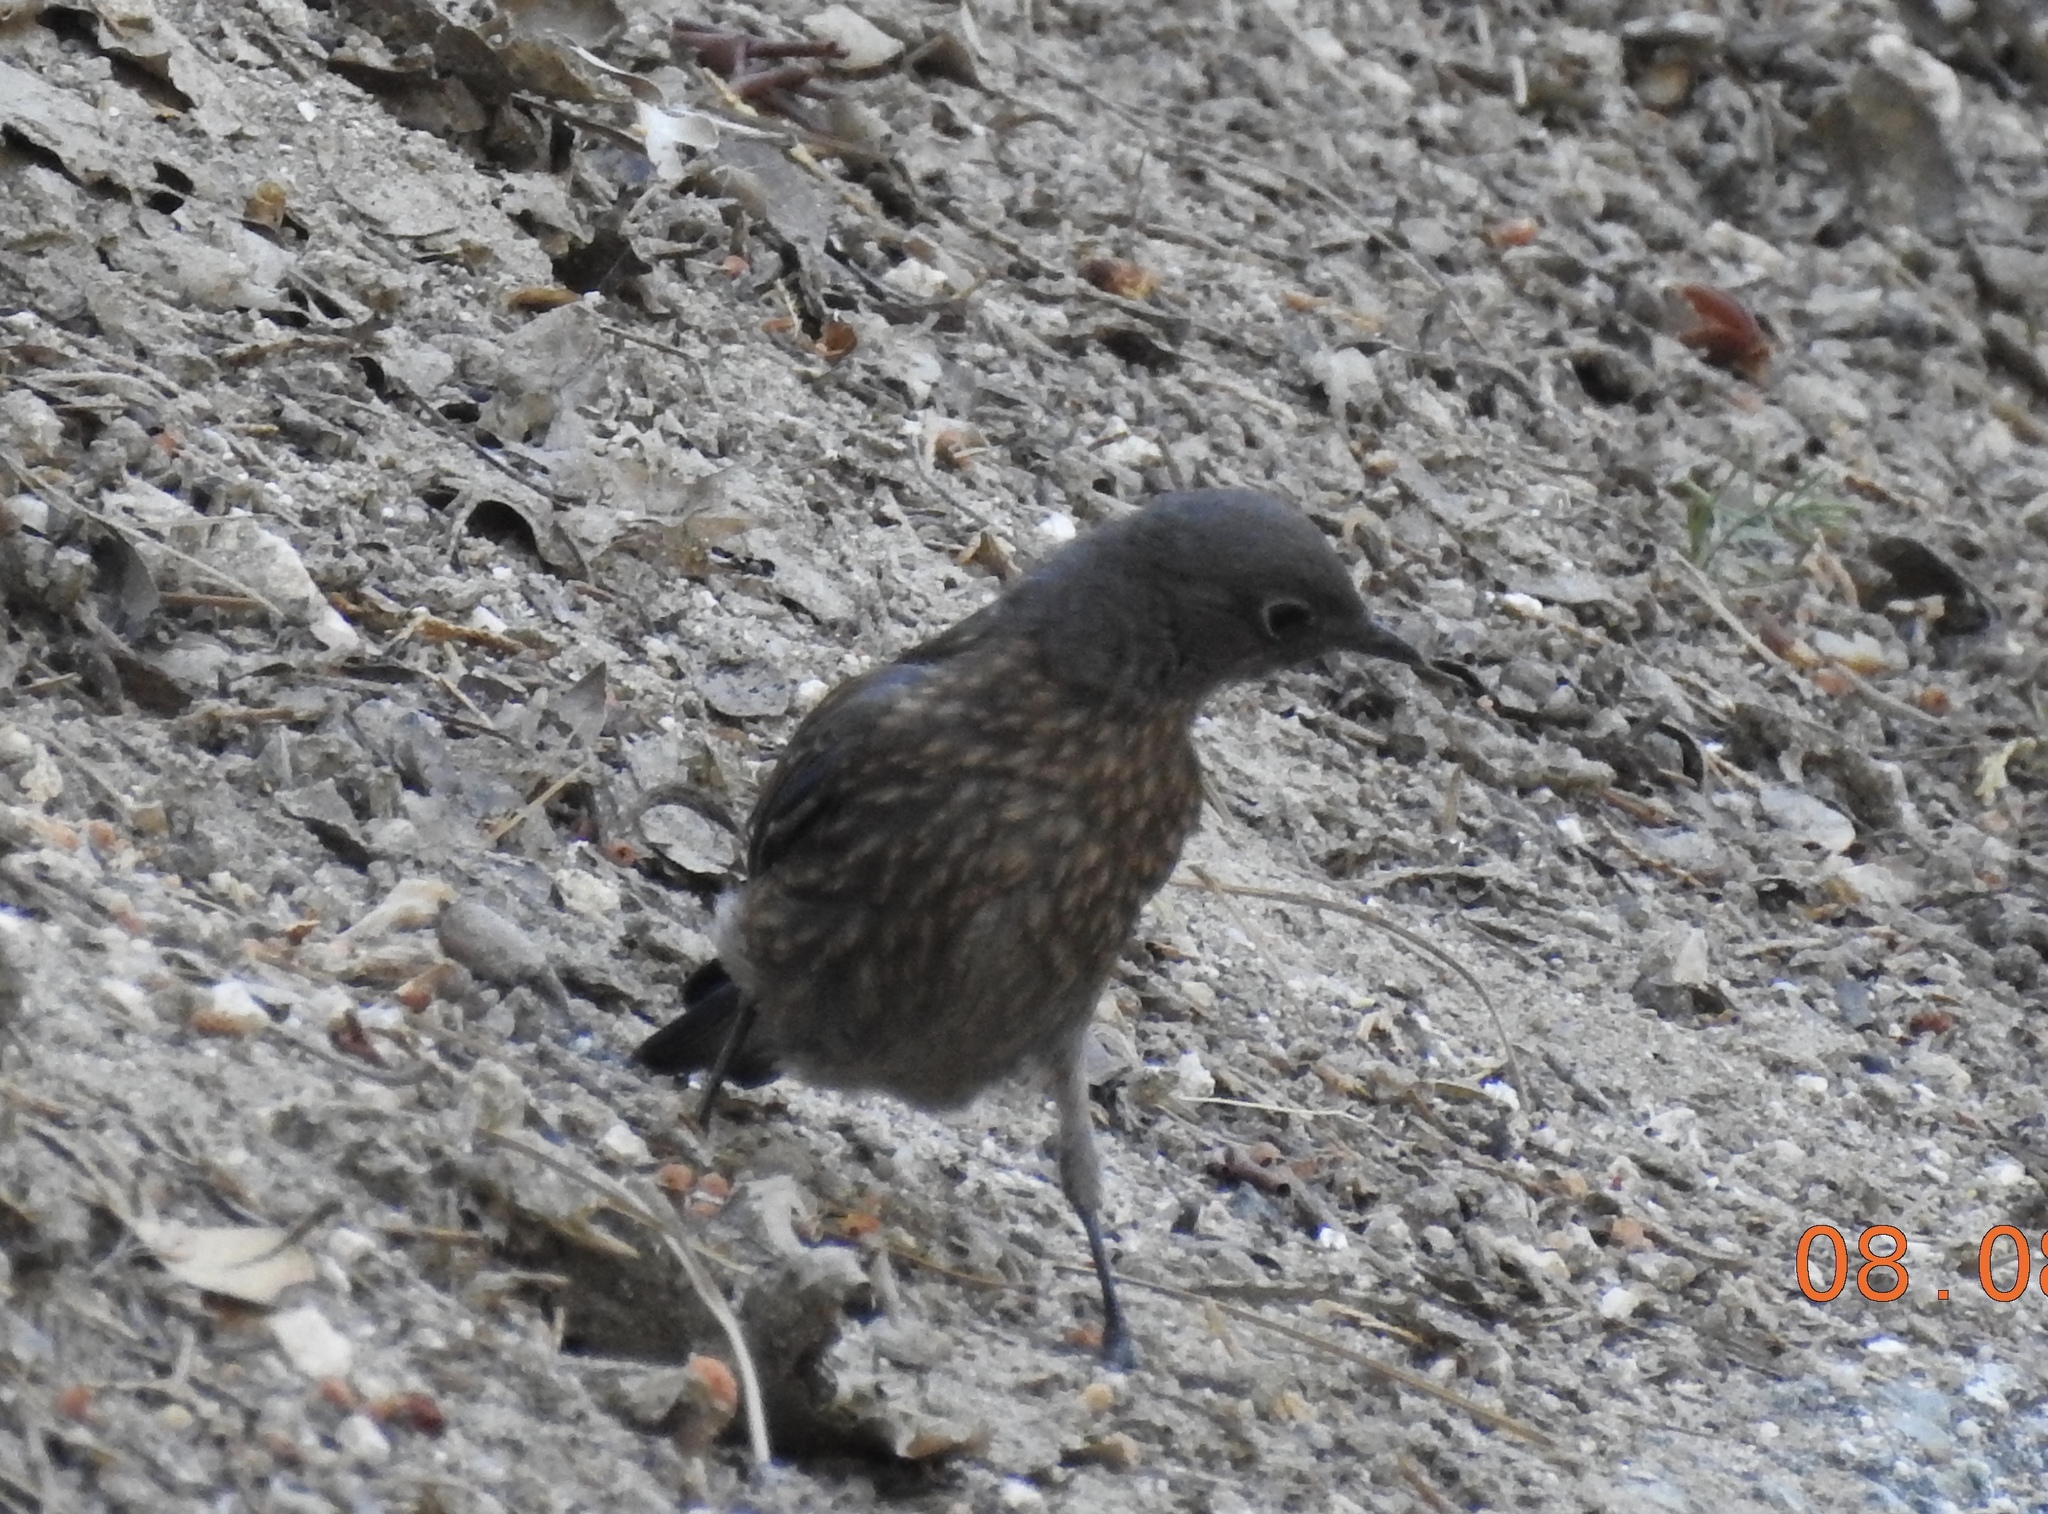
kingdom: Animalia
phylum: Chordata
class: Aves
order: Passeriformes
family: Turdidae
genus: Sialia
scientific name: Sialia mexicana
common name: Western bluebird
